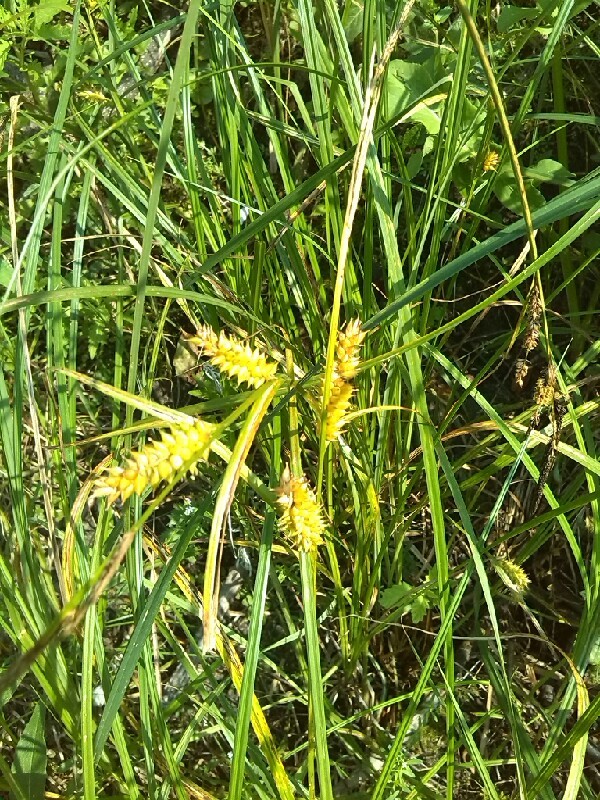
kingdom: Plantae
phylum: Tracheophyta
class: Liliopsida
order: Poales
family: Cyperaceae
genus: Carex
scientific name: Carex vesicaria
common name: Bladder-sedge
